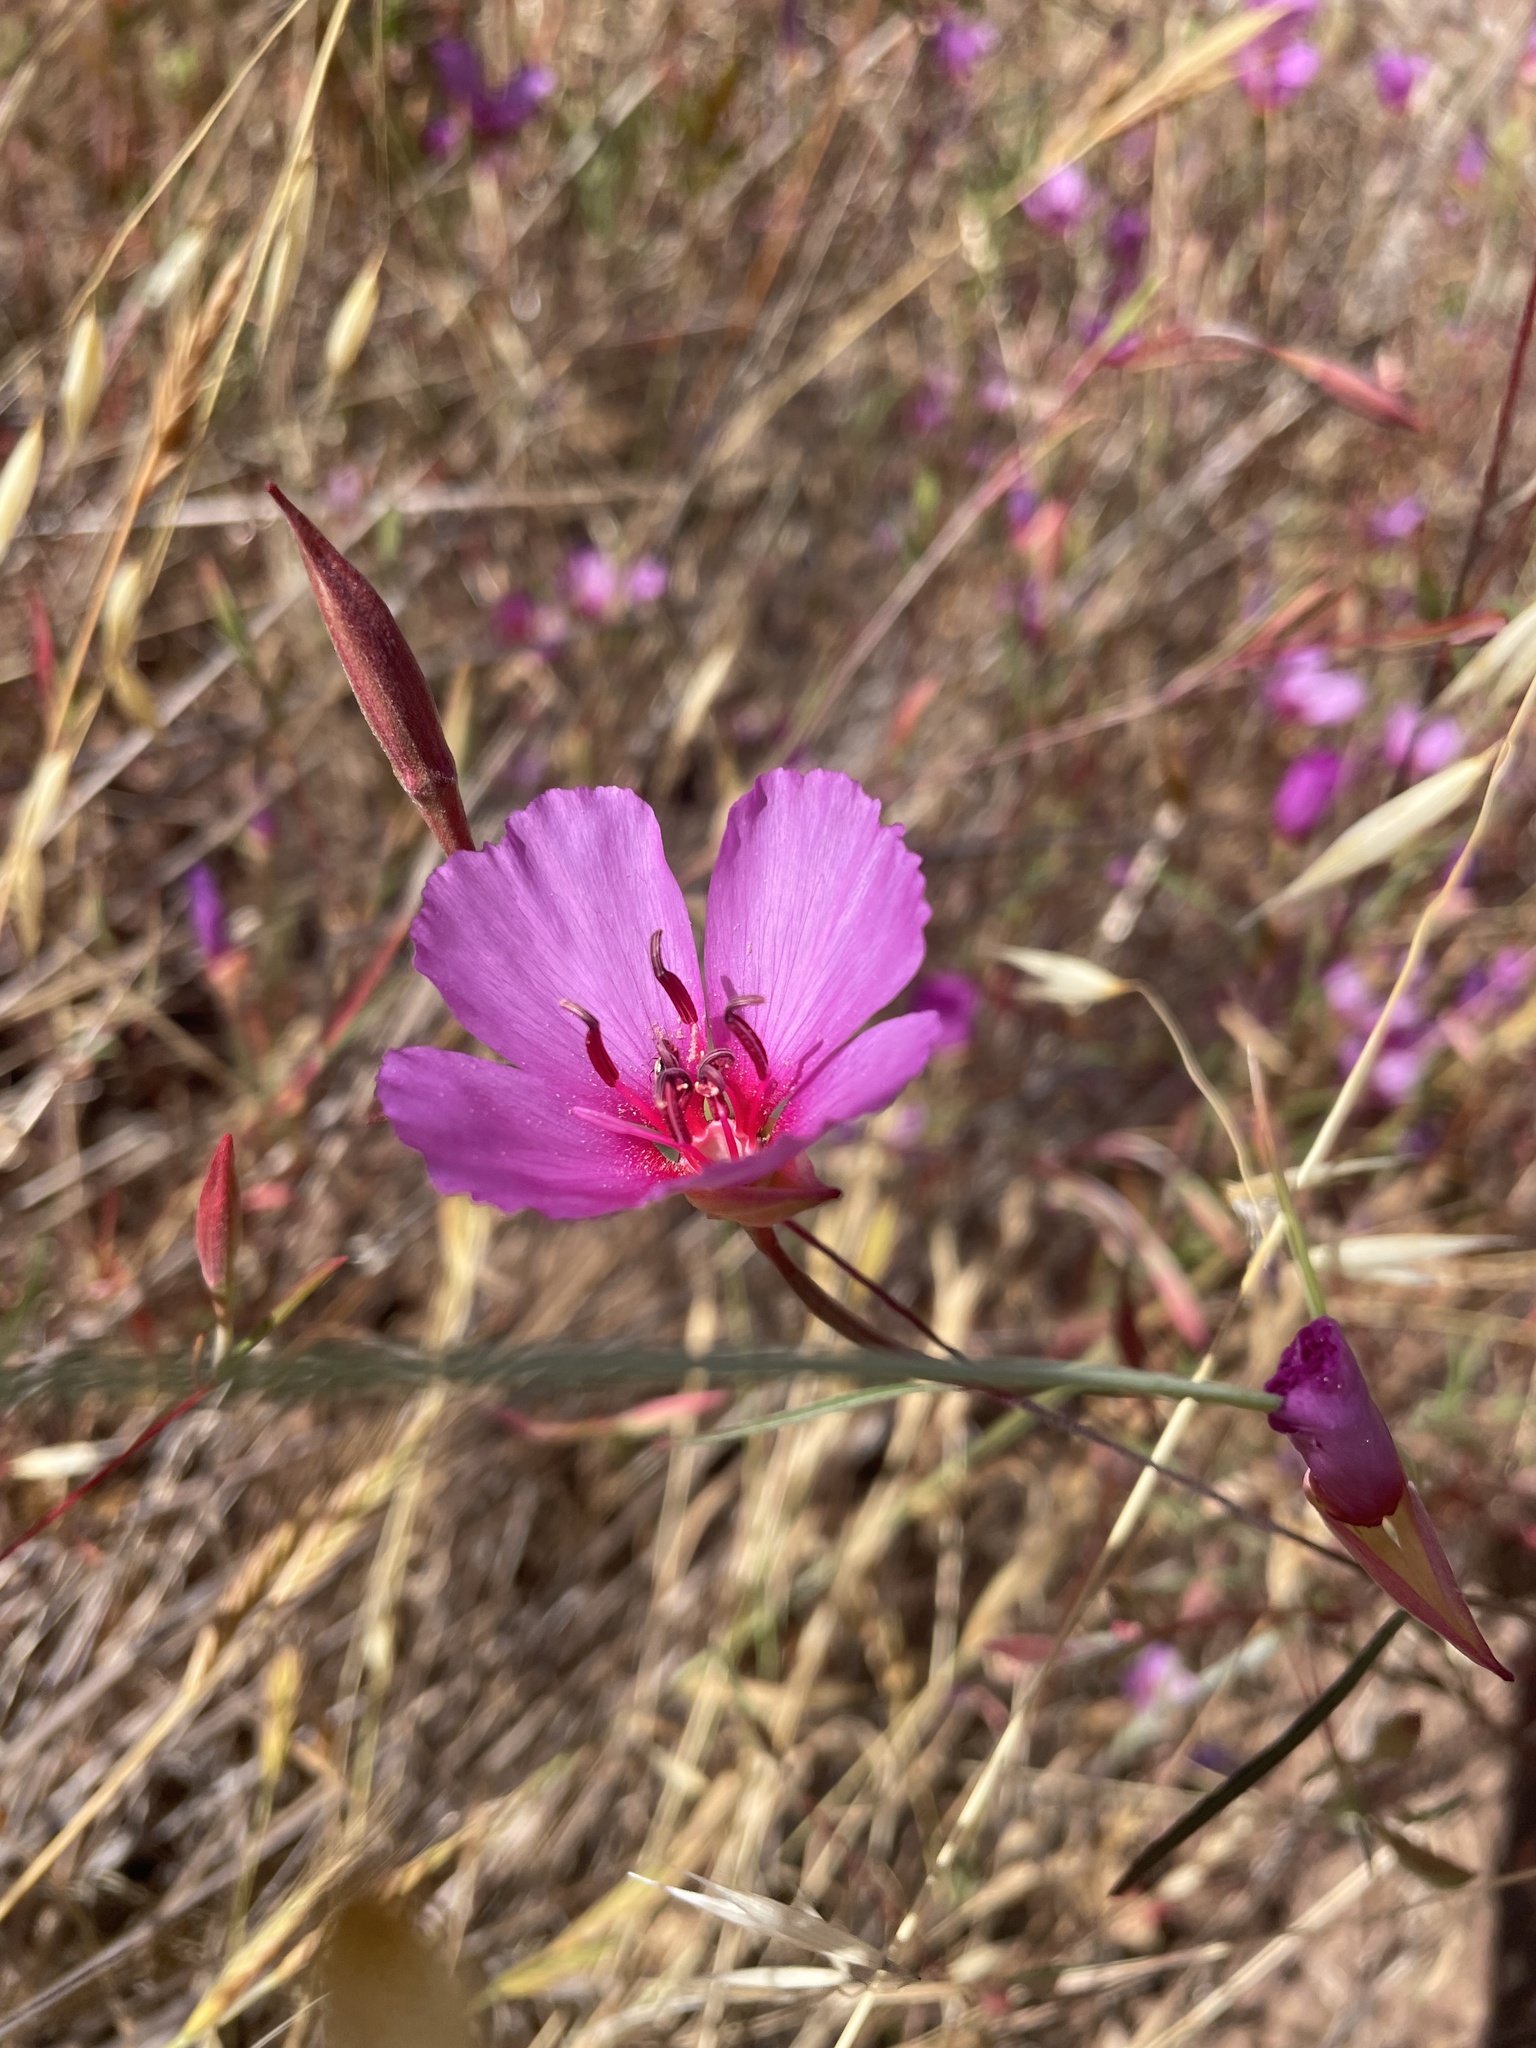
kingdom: Plantae
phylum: Tracheophyta
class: Magnoliopsida
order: Myrtales
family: Onagraceae
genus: Clarkia
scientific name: Clarkia rubicunda
